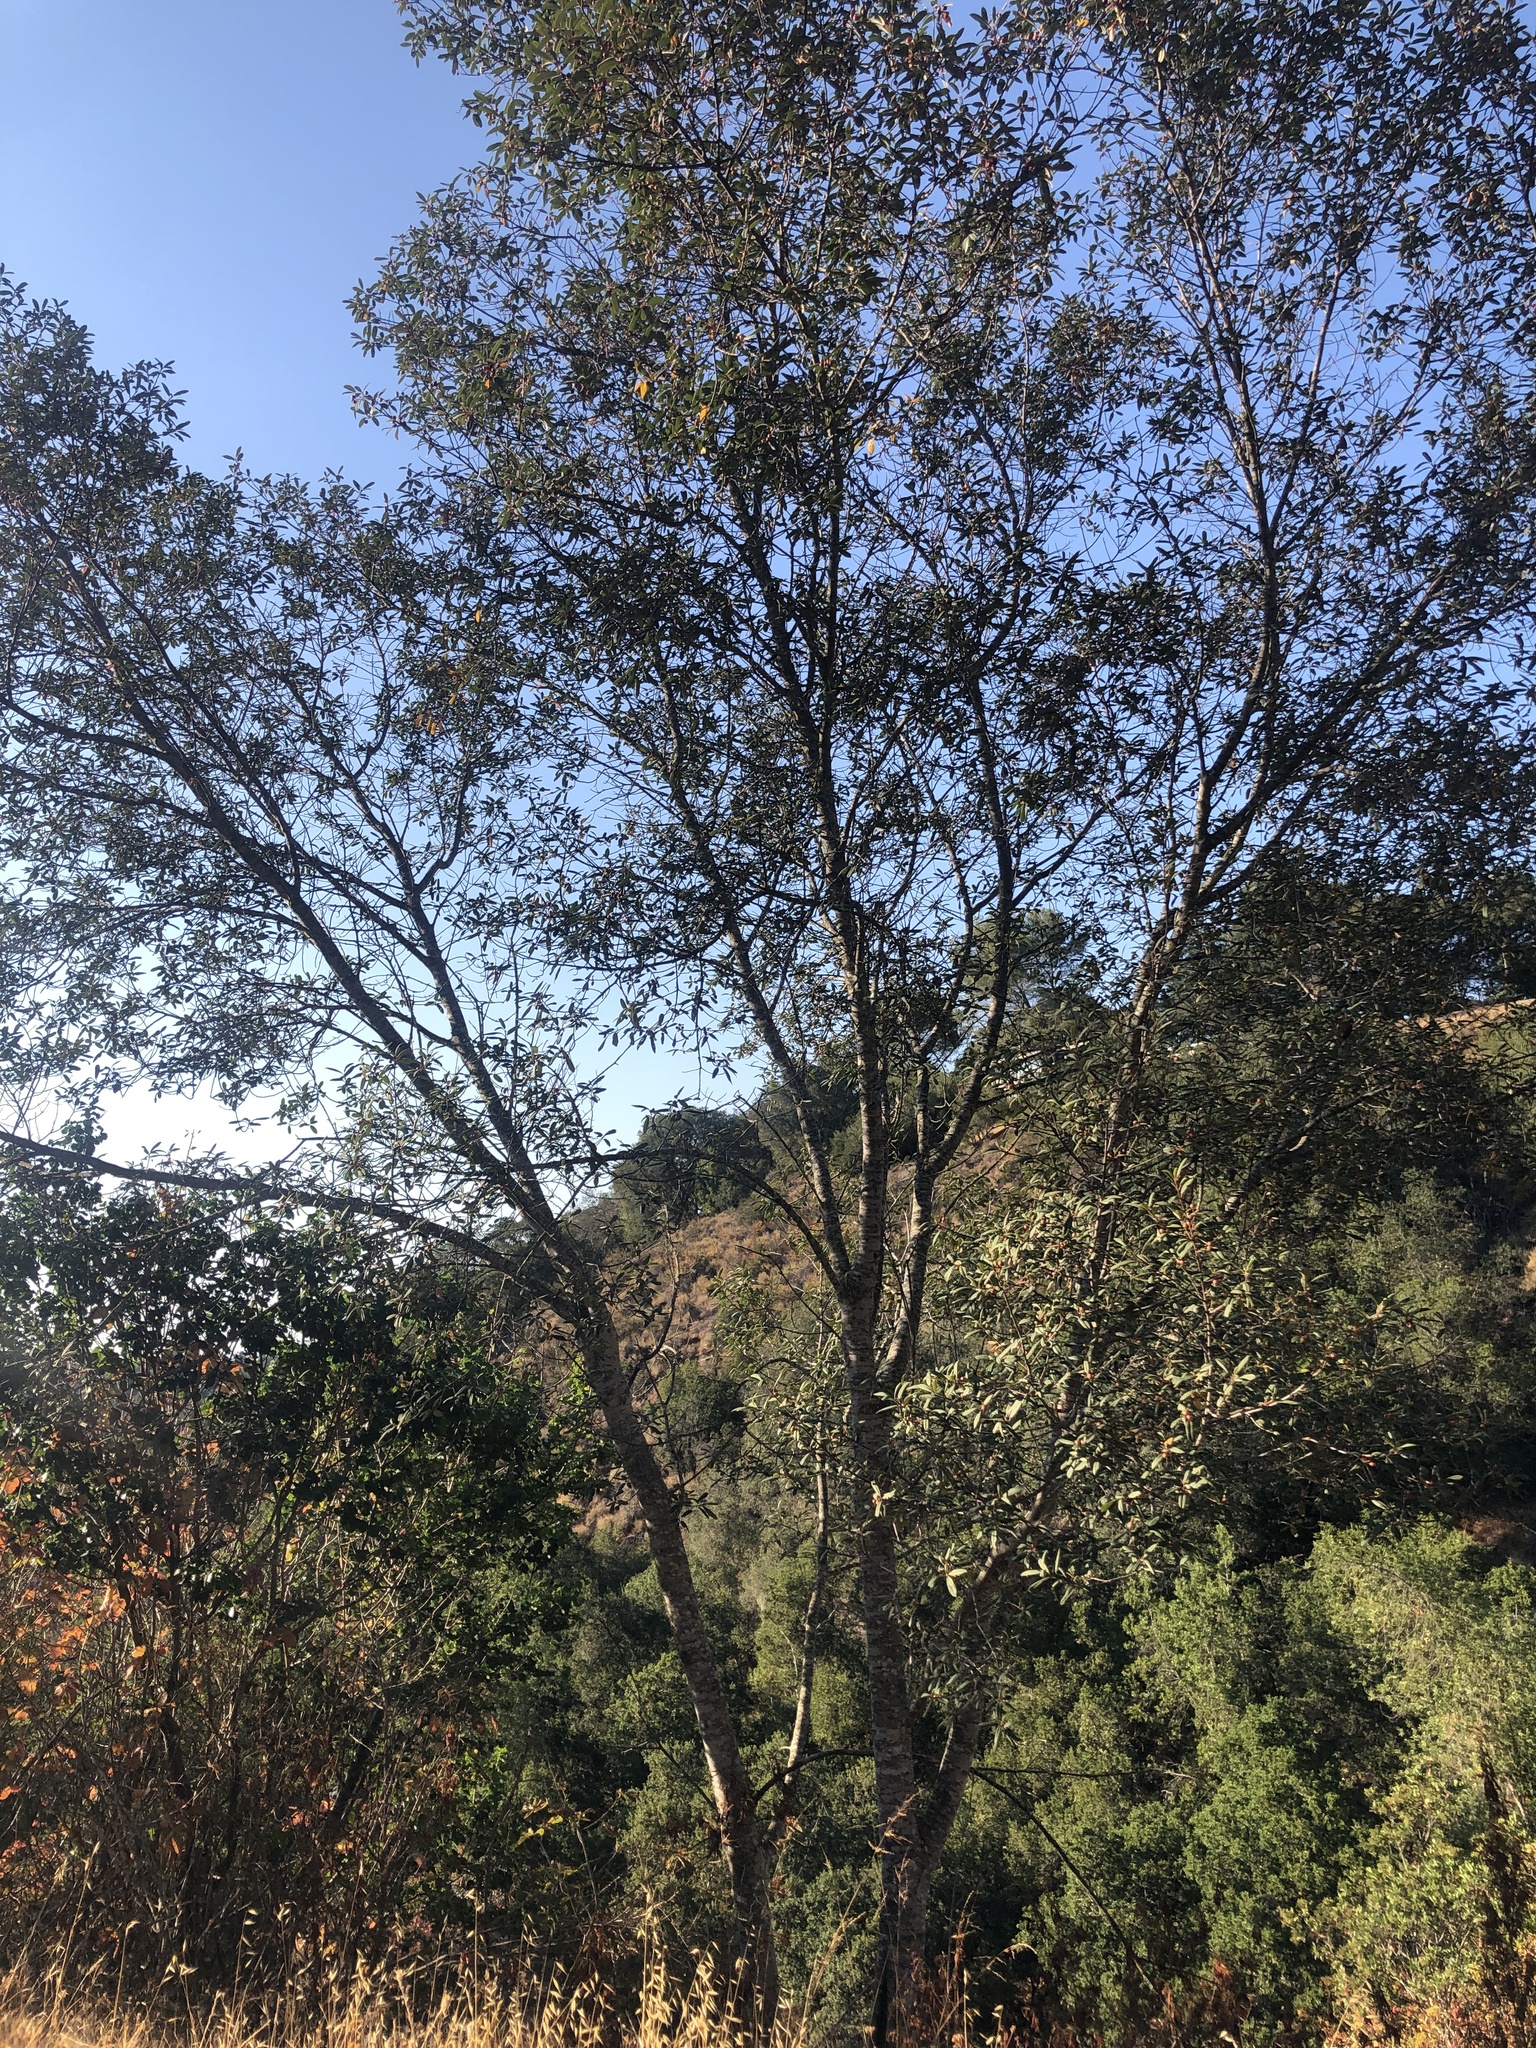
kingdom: Plantae
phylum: Tracheophyta
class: Magnoliopsida
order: Rosales
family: Rhamnaceae
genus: Frangula
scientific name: Frangula californica
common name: California buckthorn
